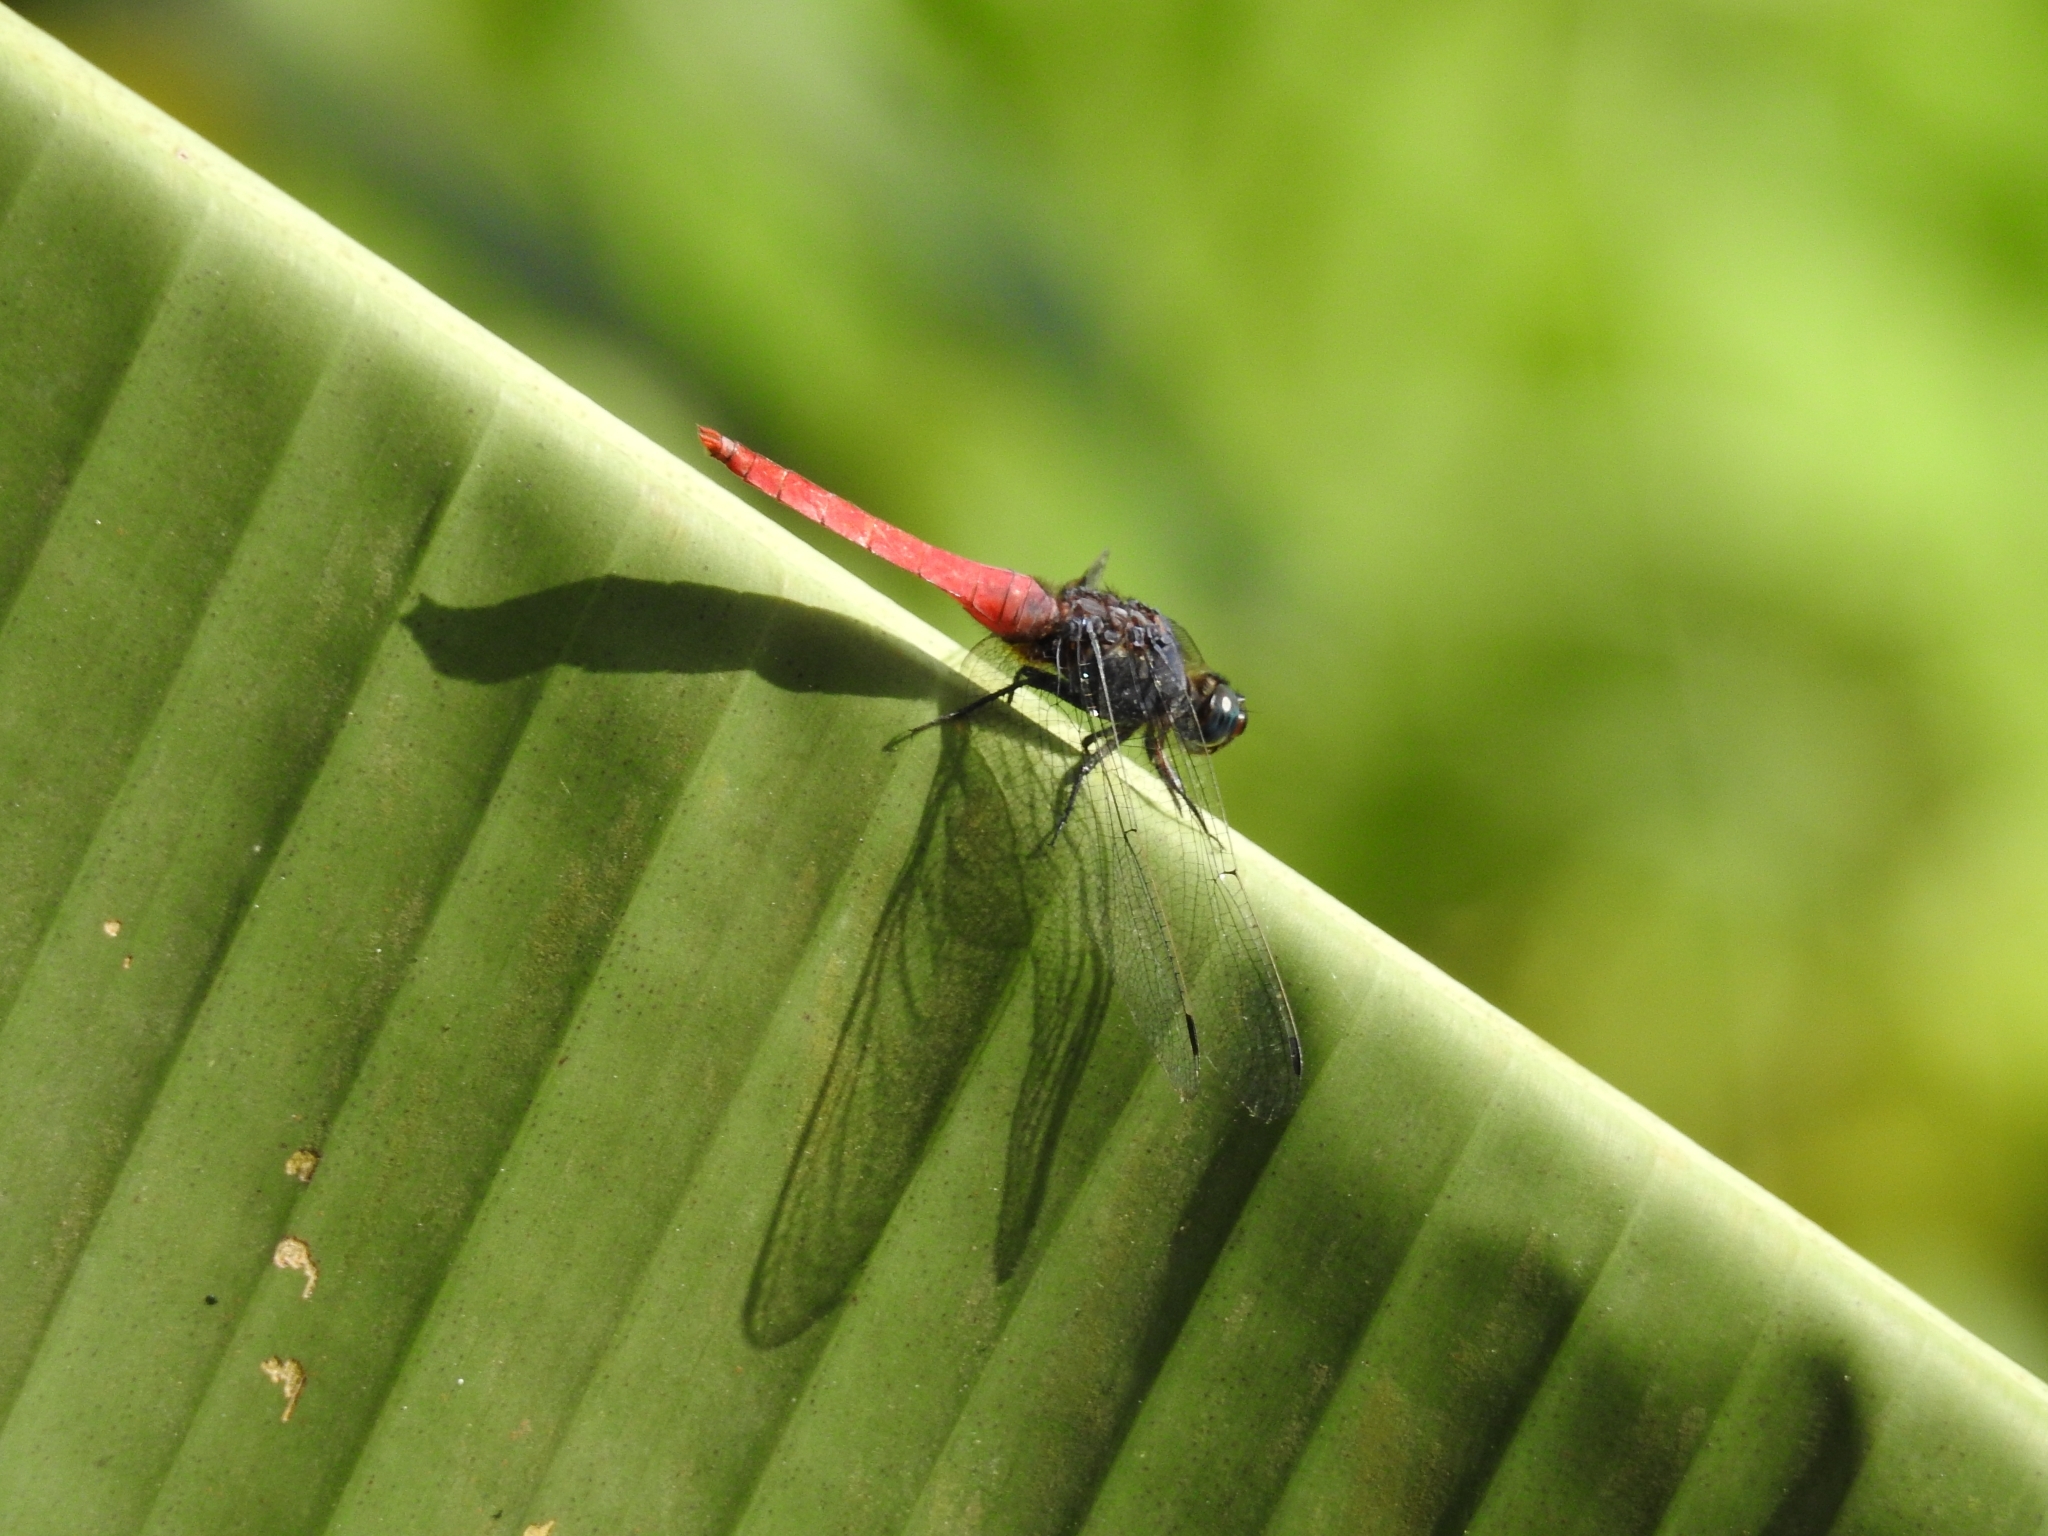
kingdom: Animalia
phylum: Arthropoda
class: Insecta
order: Odonata
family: Libellulidae
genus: Orthetrum
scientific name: Orthetrum pruinosum
